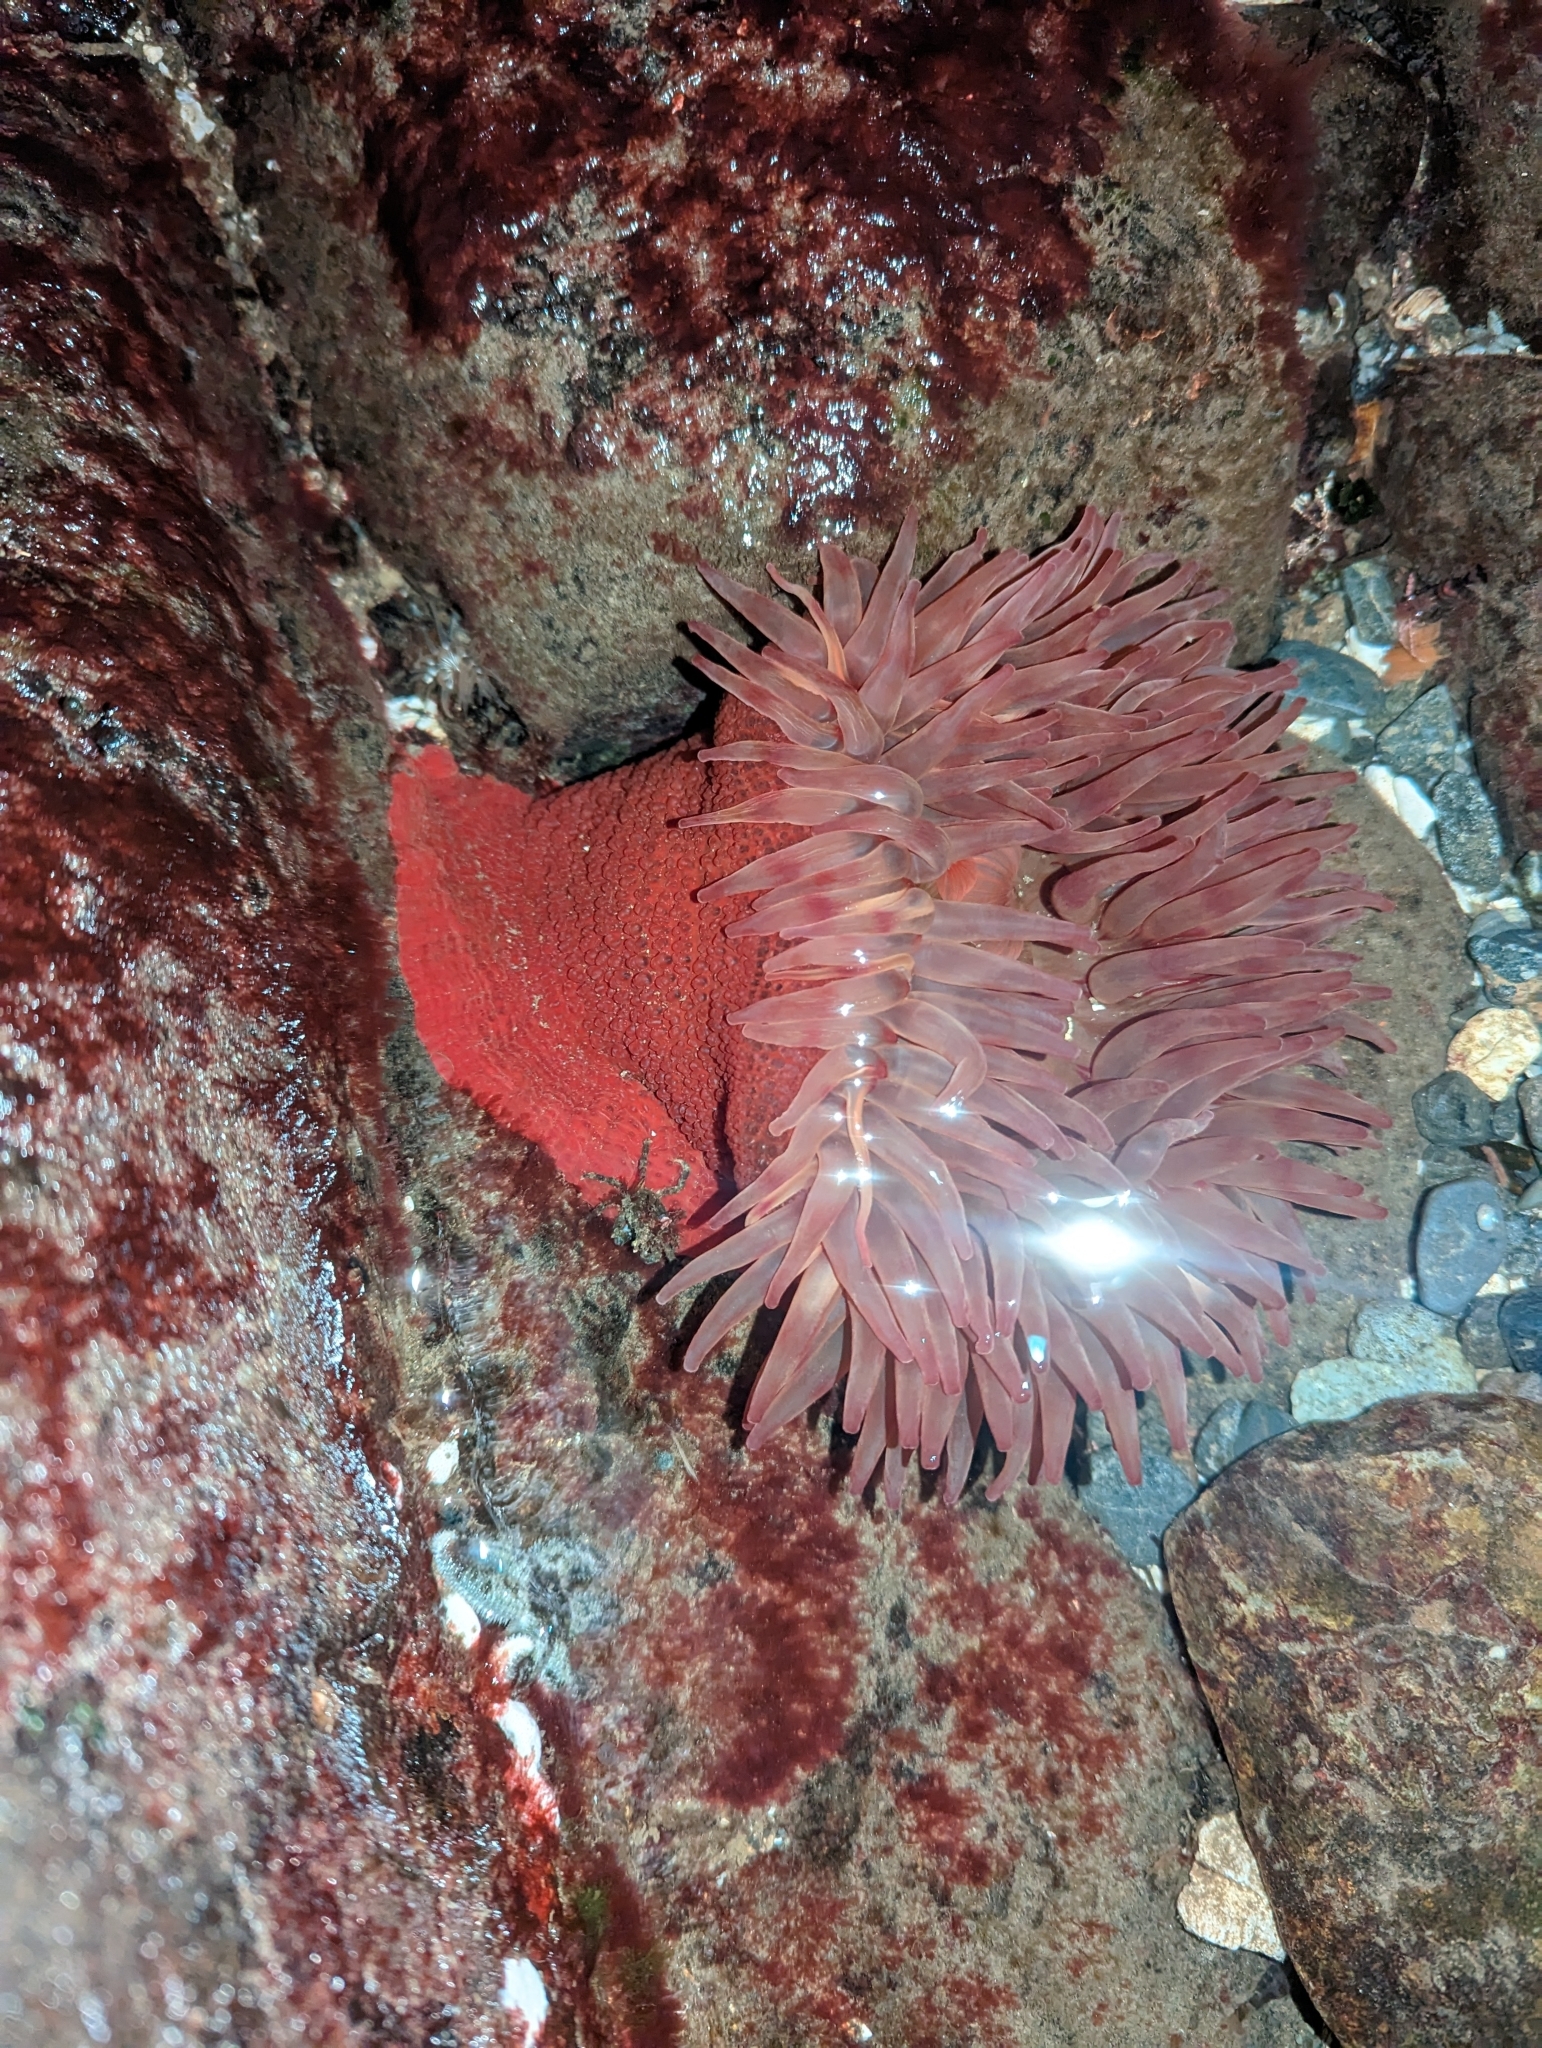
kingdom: Animalia
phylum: Cnidaria
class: Anthozoa
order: Actiniaria
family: Actiniidae
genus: Urticina
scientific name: Urticina grebelnyi
